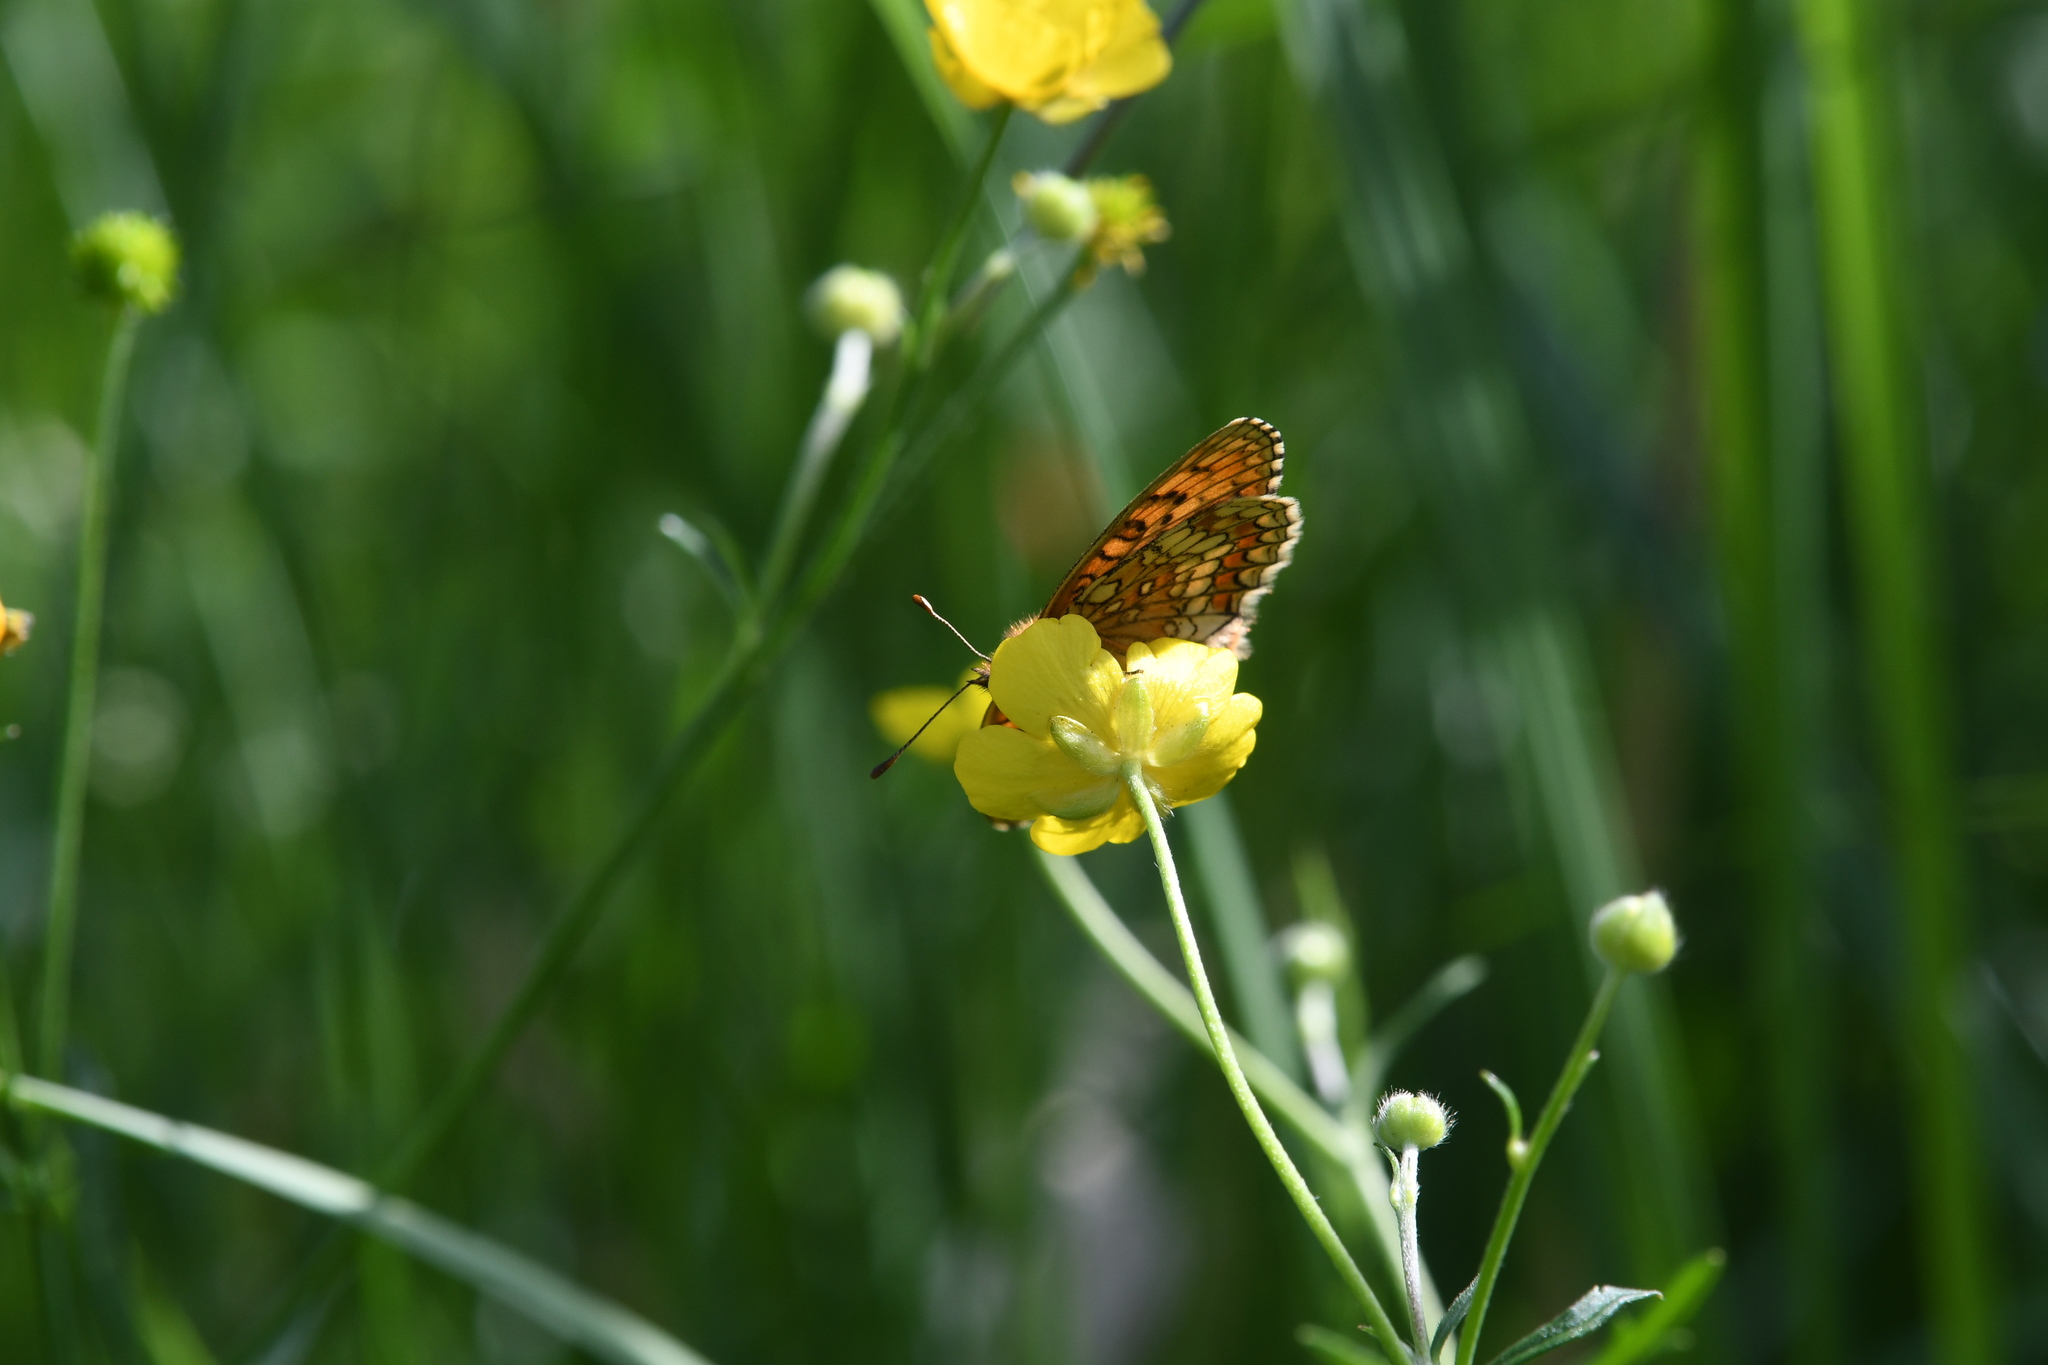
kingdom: Animalia
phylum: Arthropoda
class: Insecta
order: Lepidoptera
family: Nymphalidae
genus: Melitaea
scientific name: Melitaea athalia
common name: Heath fritillary
